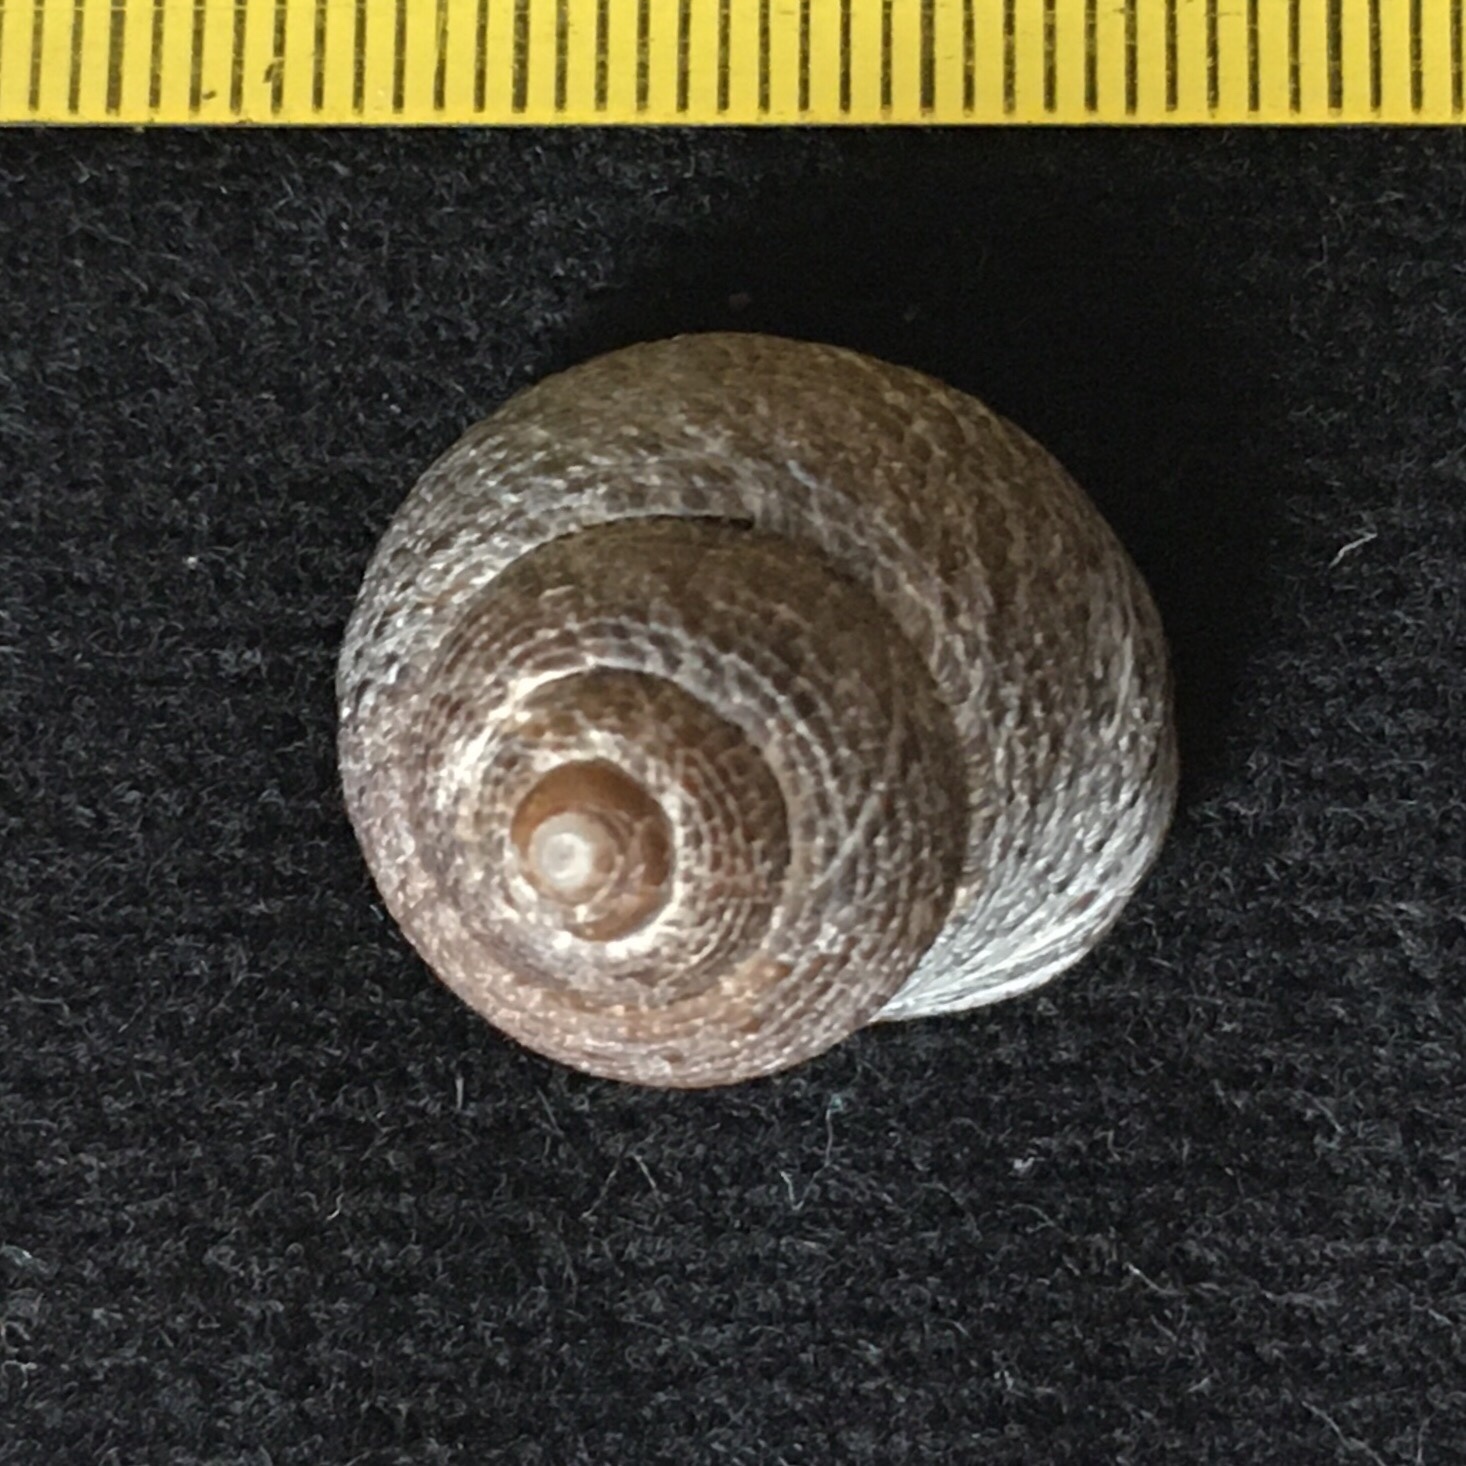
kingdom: Animalia
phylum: Mollusca
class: Gastropoda
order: Trochida
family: Tegulidae
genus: Tegula
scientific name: Tegula patagonica
